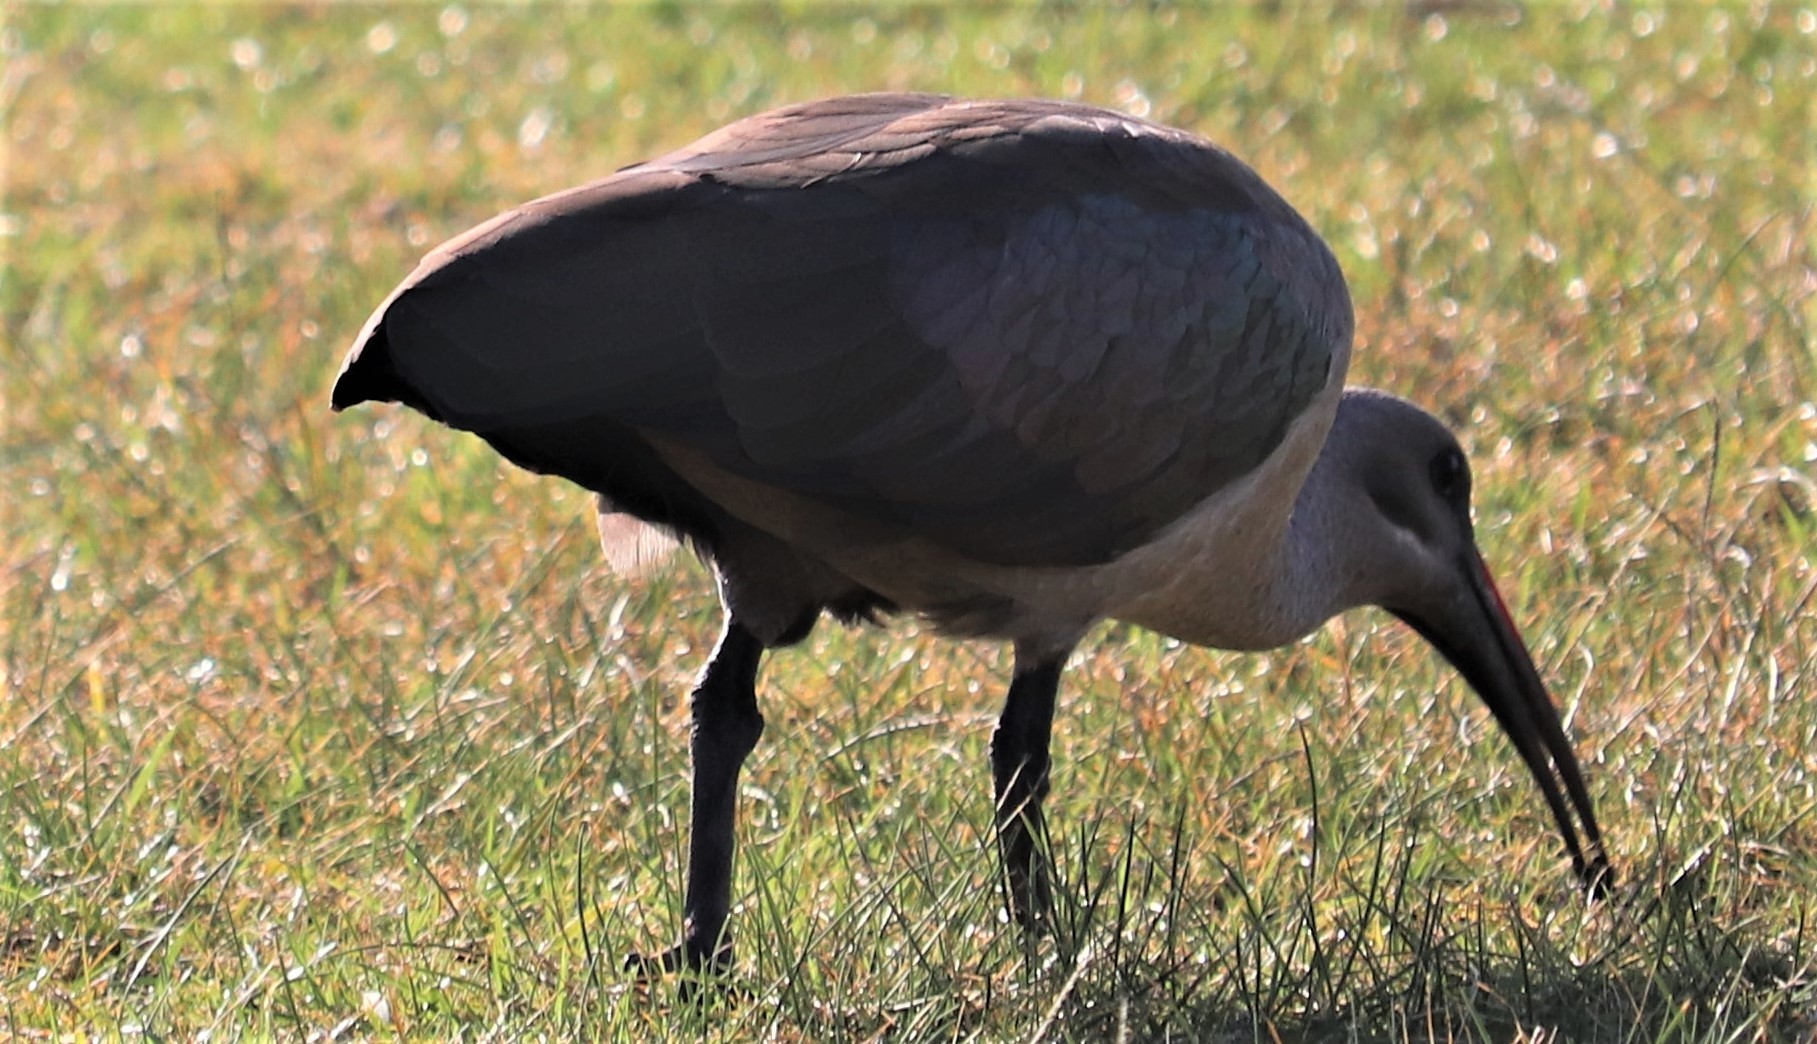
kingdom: Animalia
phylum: Chordata
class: Aves
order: Pelecaniformes
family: Threskiornithidae
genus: Bostrychia
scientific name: Bostrychia hagedash
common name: Hadada ibis
